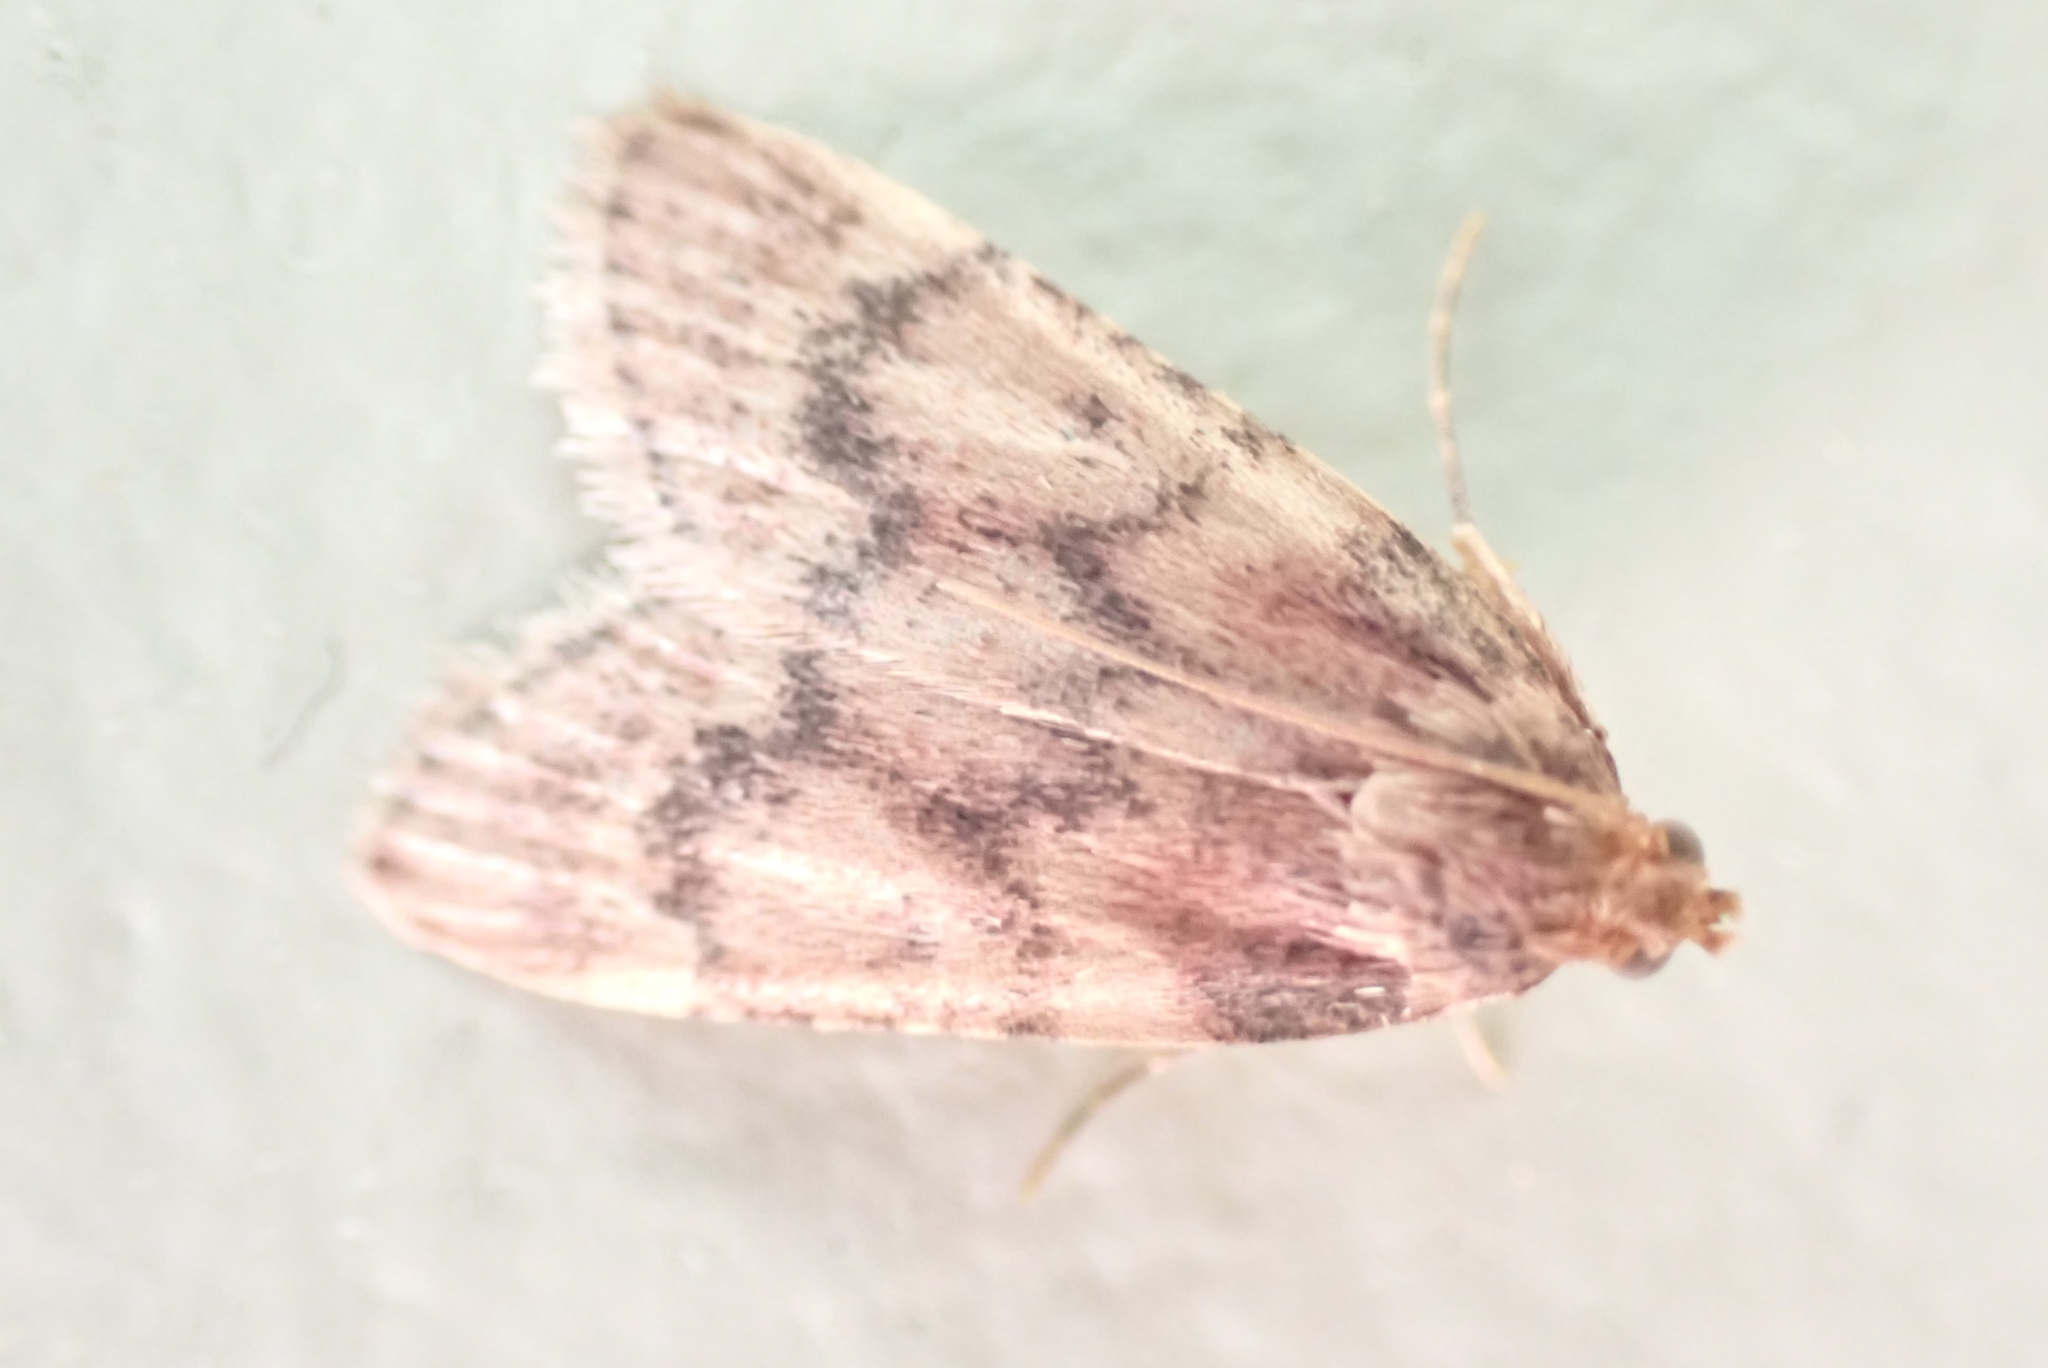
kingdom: Animalia
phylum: Arthropoda
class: Insecta
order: Lepidoptera
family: Pyralidae
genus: Aglossa
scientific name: Aglossa disciferalis
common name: Pink-masked pyralid moth
